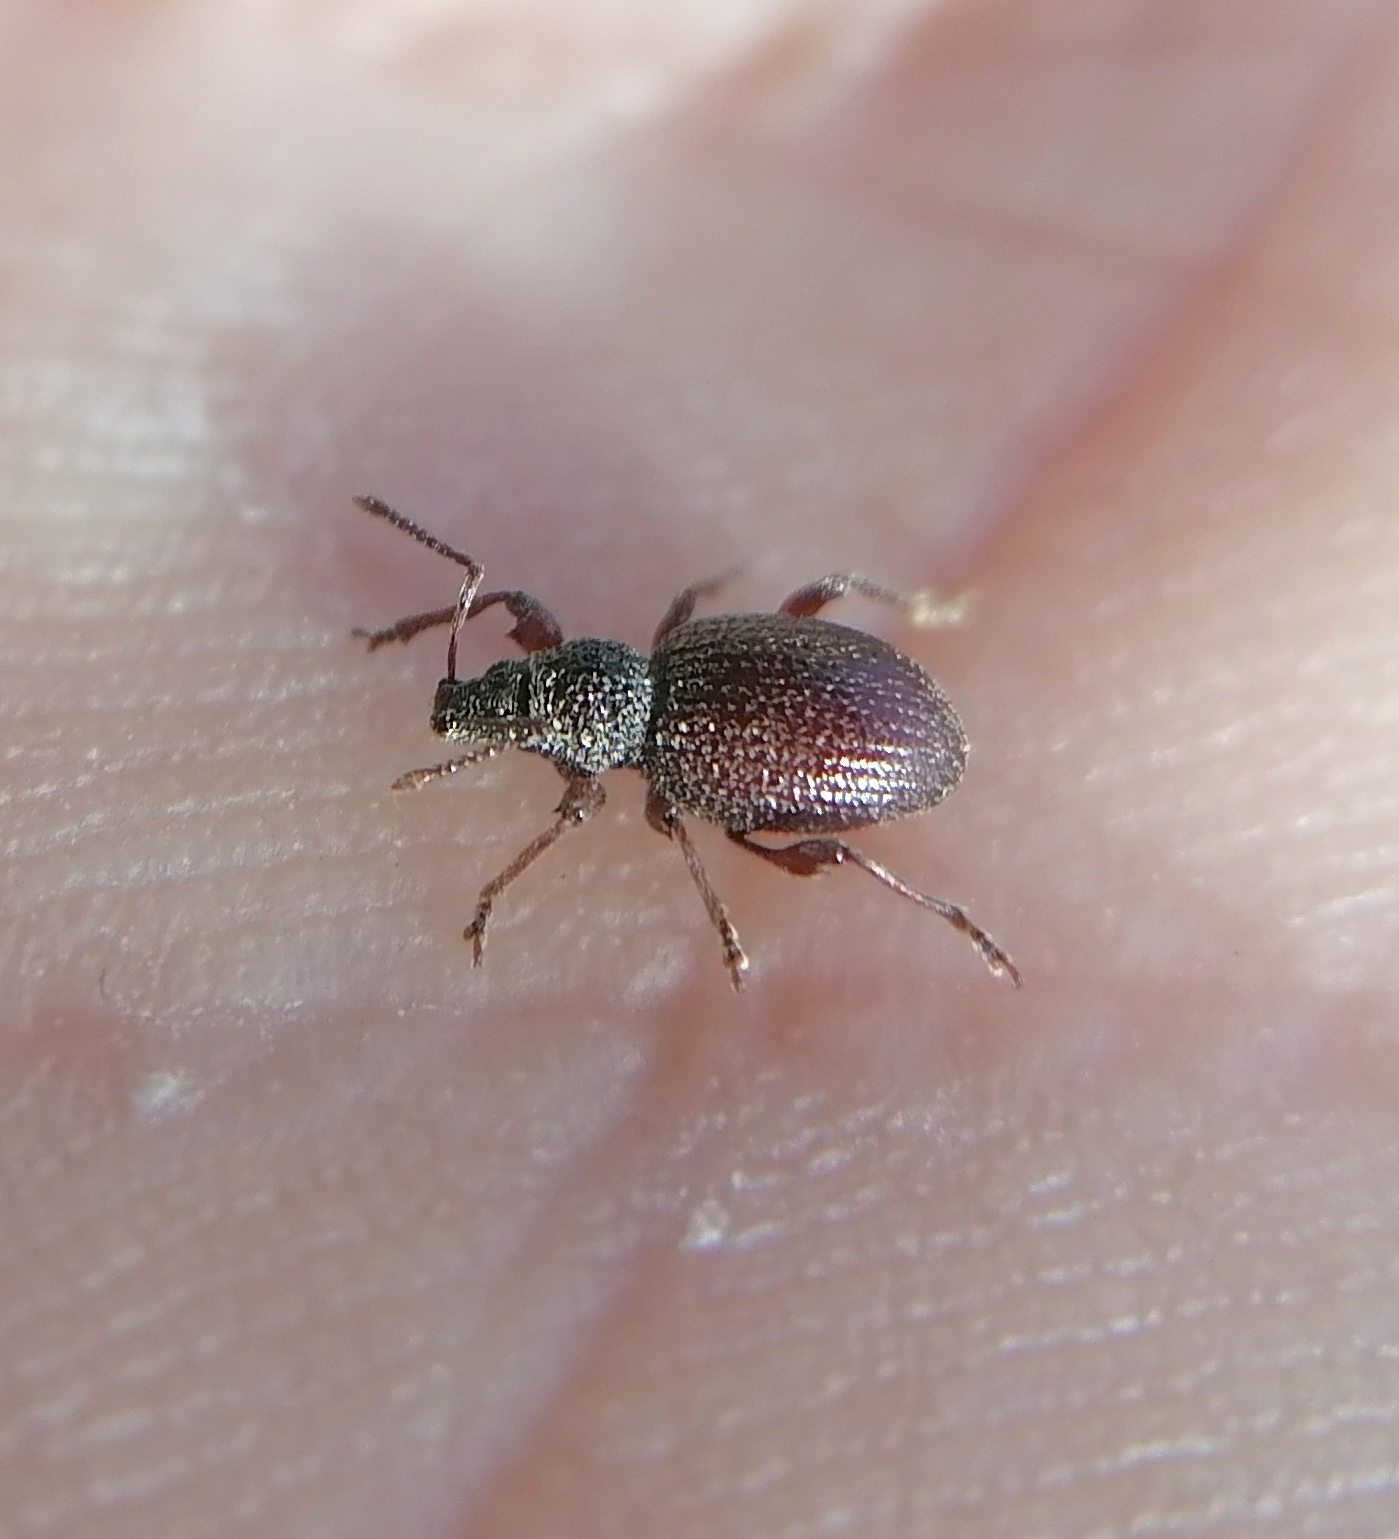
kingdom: Animalia
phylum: Arthropoda
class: Insecta
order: Coleoptera
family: Curculionidae
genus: Otiorhynchus
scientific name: Otiorhynchus ovatus
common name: Strawberry root weevil
